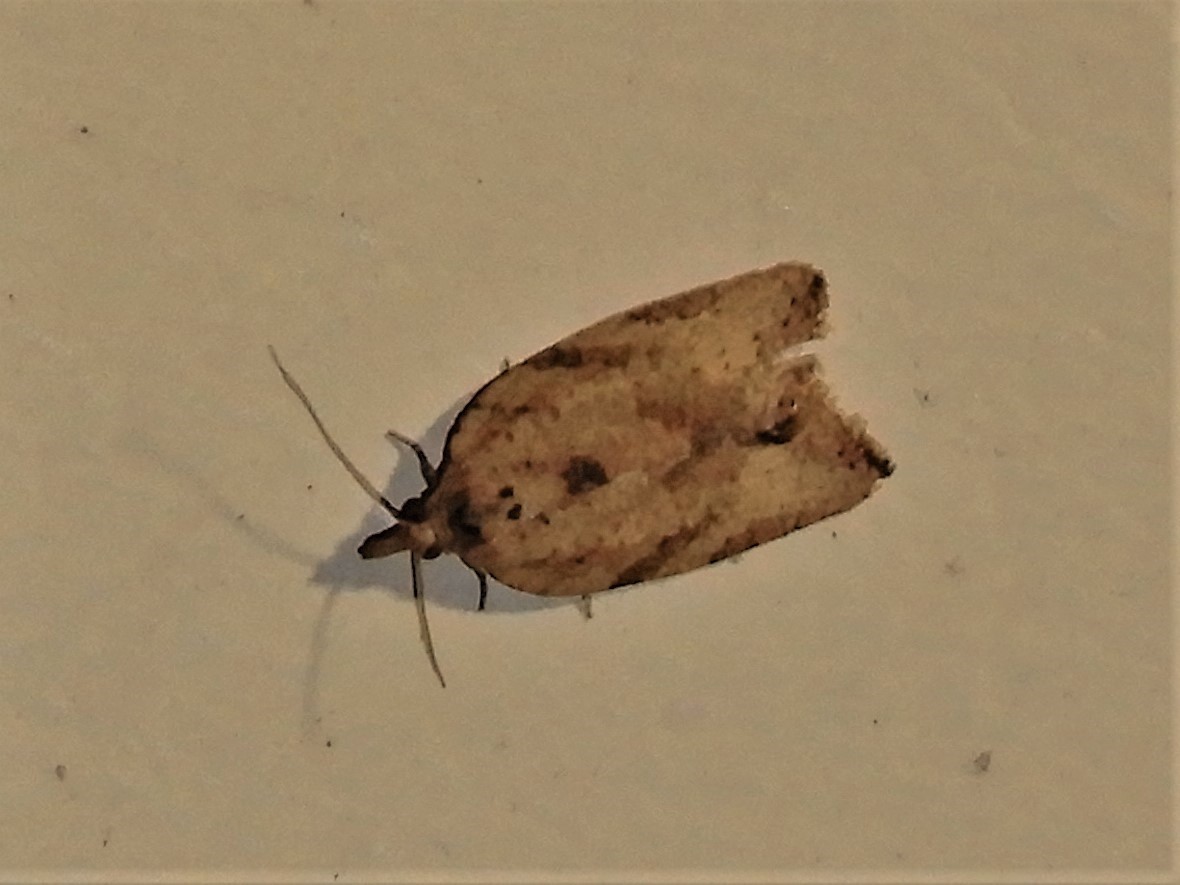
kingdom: Animalia
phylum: Arthropoda
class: Insecta
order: Lepidoptera
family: Tortricidae
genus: Epiphyas
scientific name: Epiphyas postvittana
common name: Light brown apple moth
